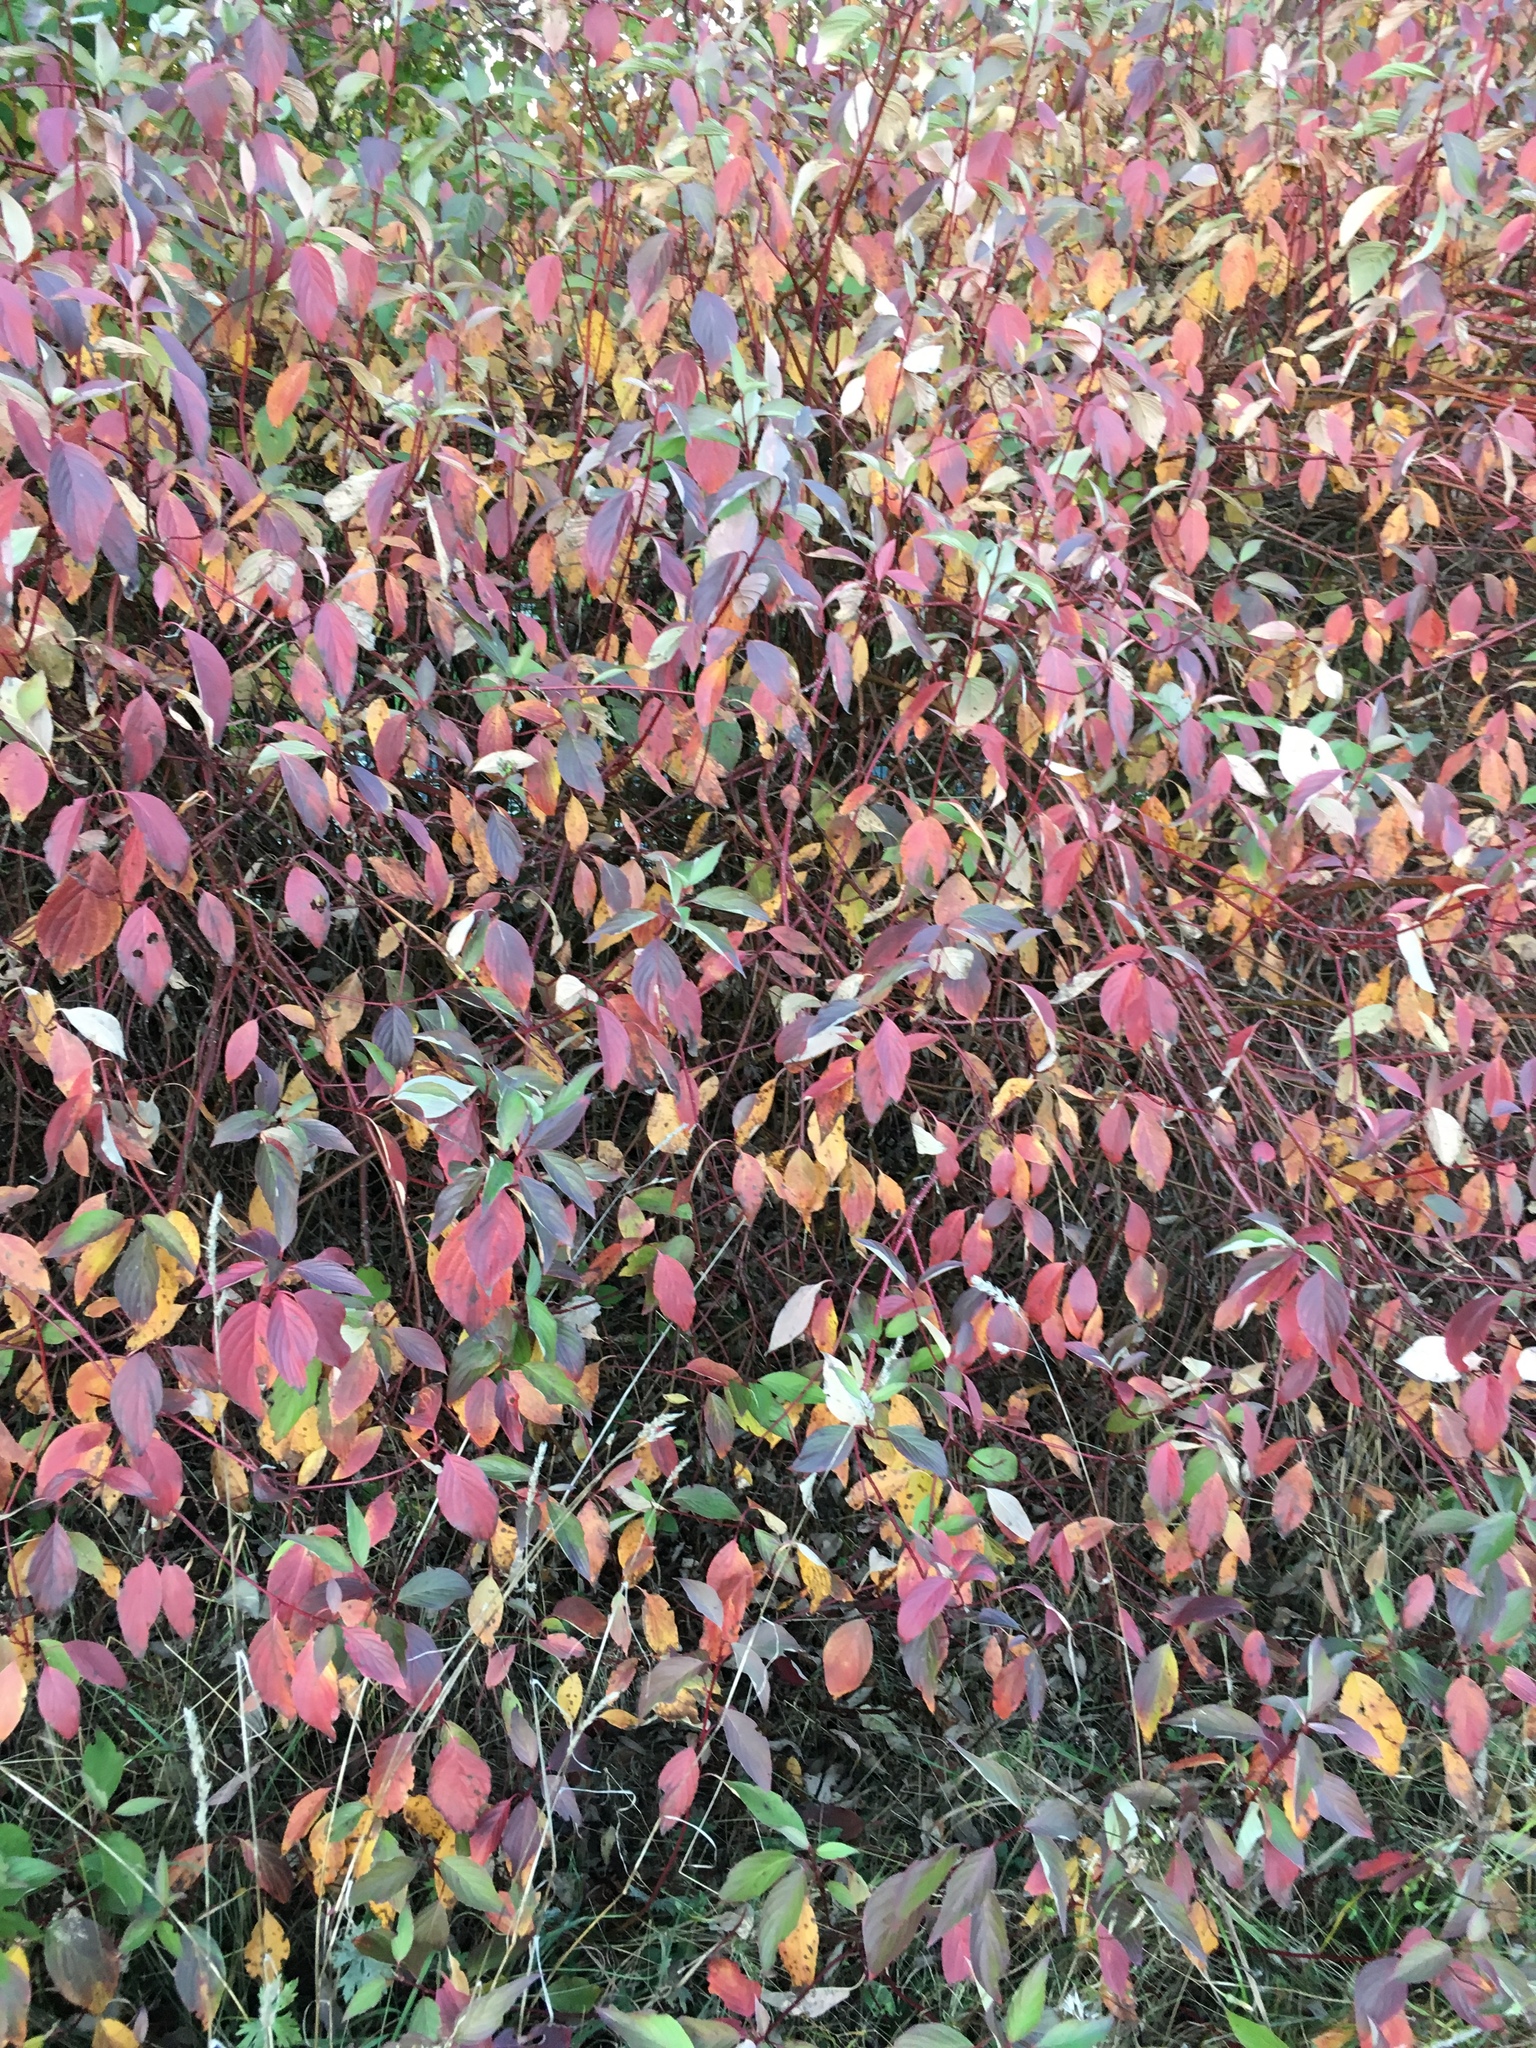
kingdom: Plantae
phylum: Tracheophyta
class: Magnoliopsida
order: Cornales
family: Cornaceae
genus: Cornus
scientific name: Cornus sanguinea
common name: Dogwood
